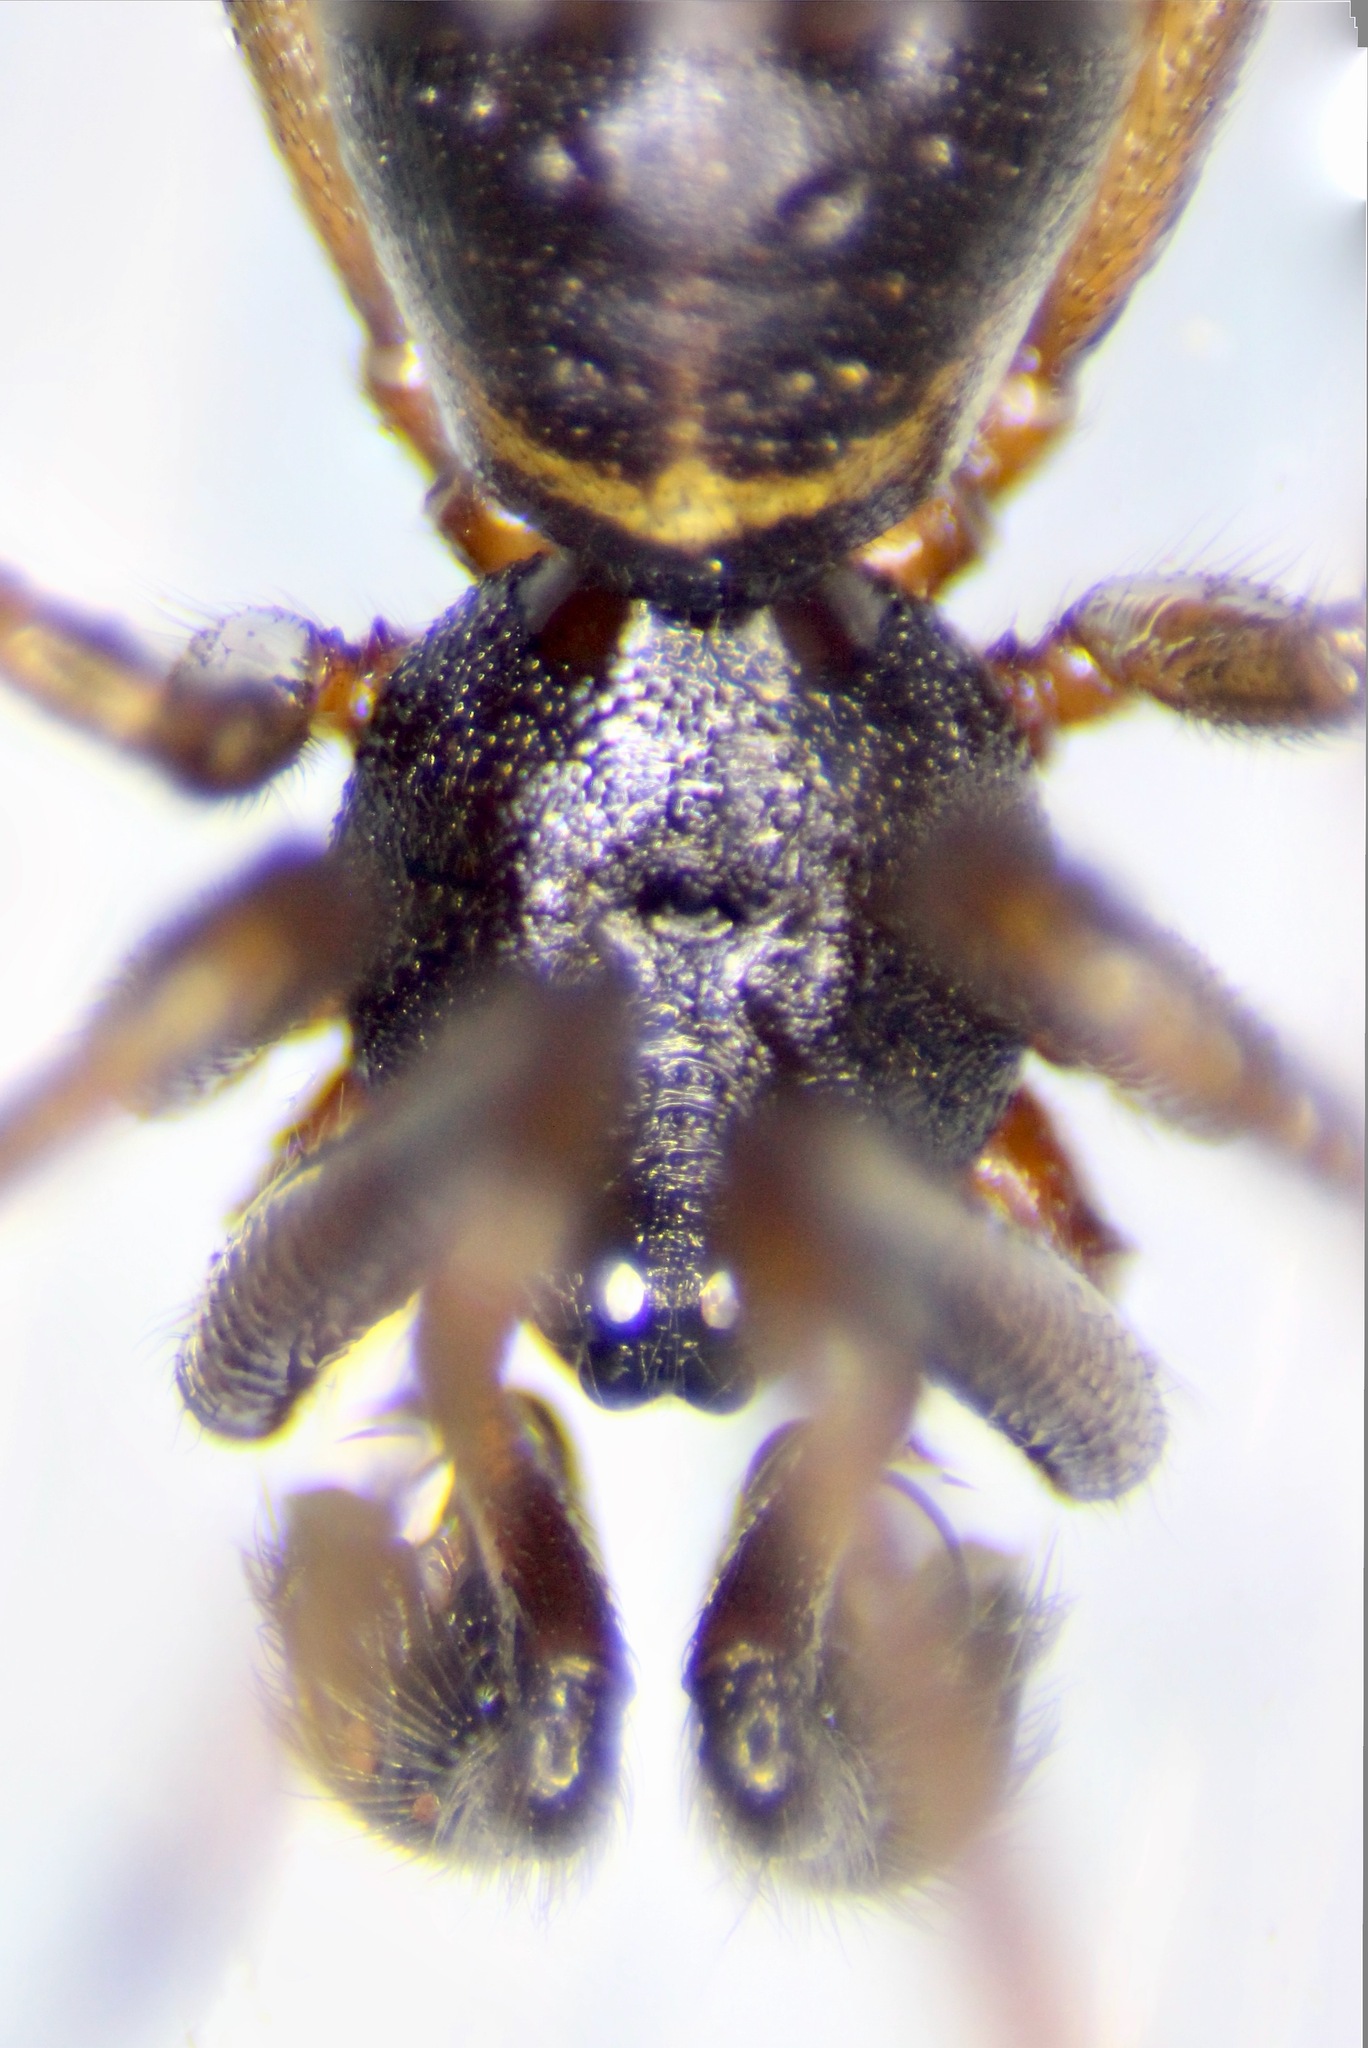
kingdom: Animalia
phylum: Arthropoda
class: Arachnida
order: Araneae
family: Theridiidae
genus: Steatoda
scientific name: Steatoda borealis
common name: Boreal combfoot
